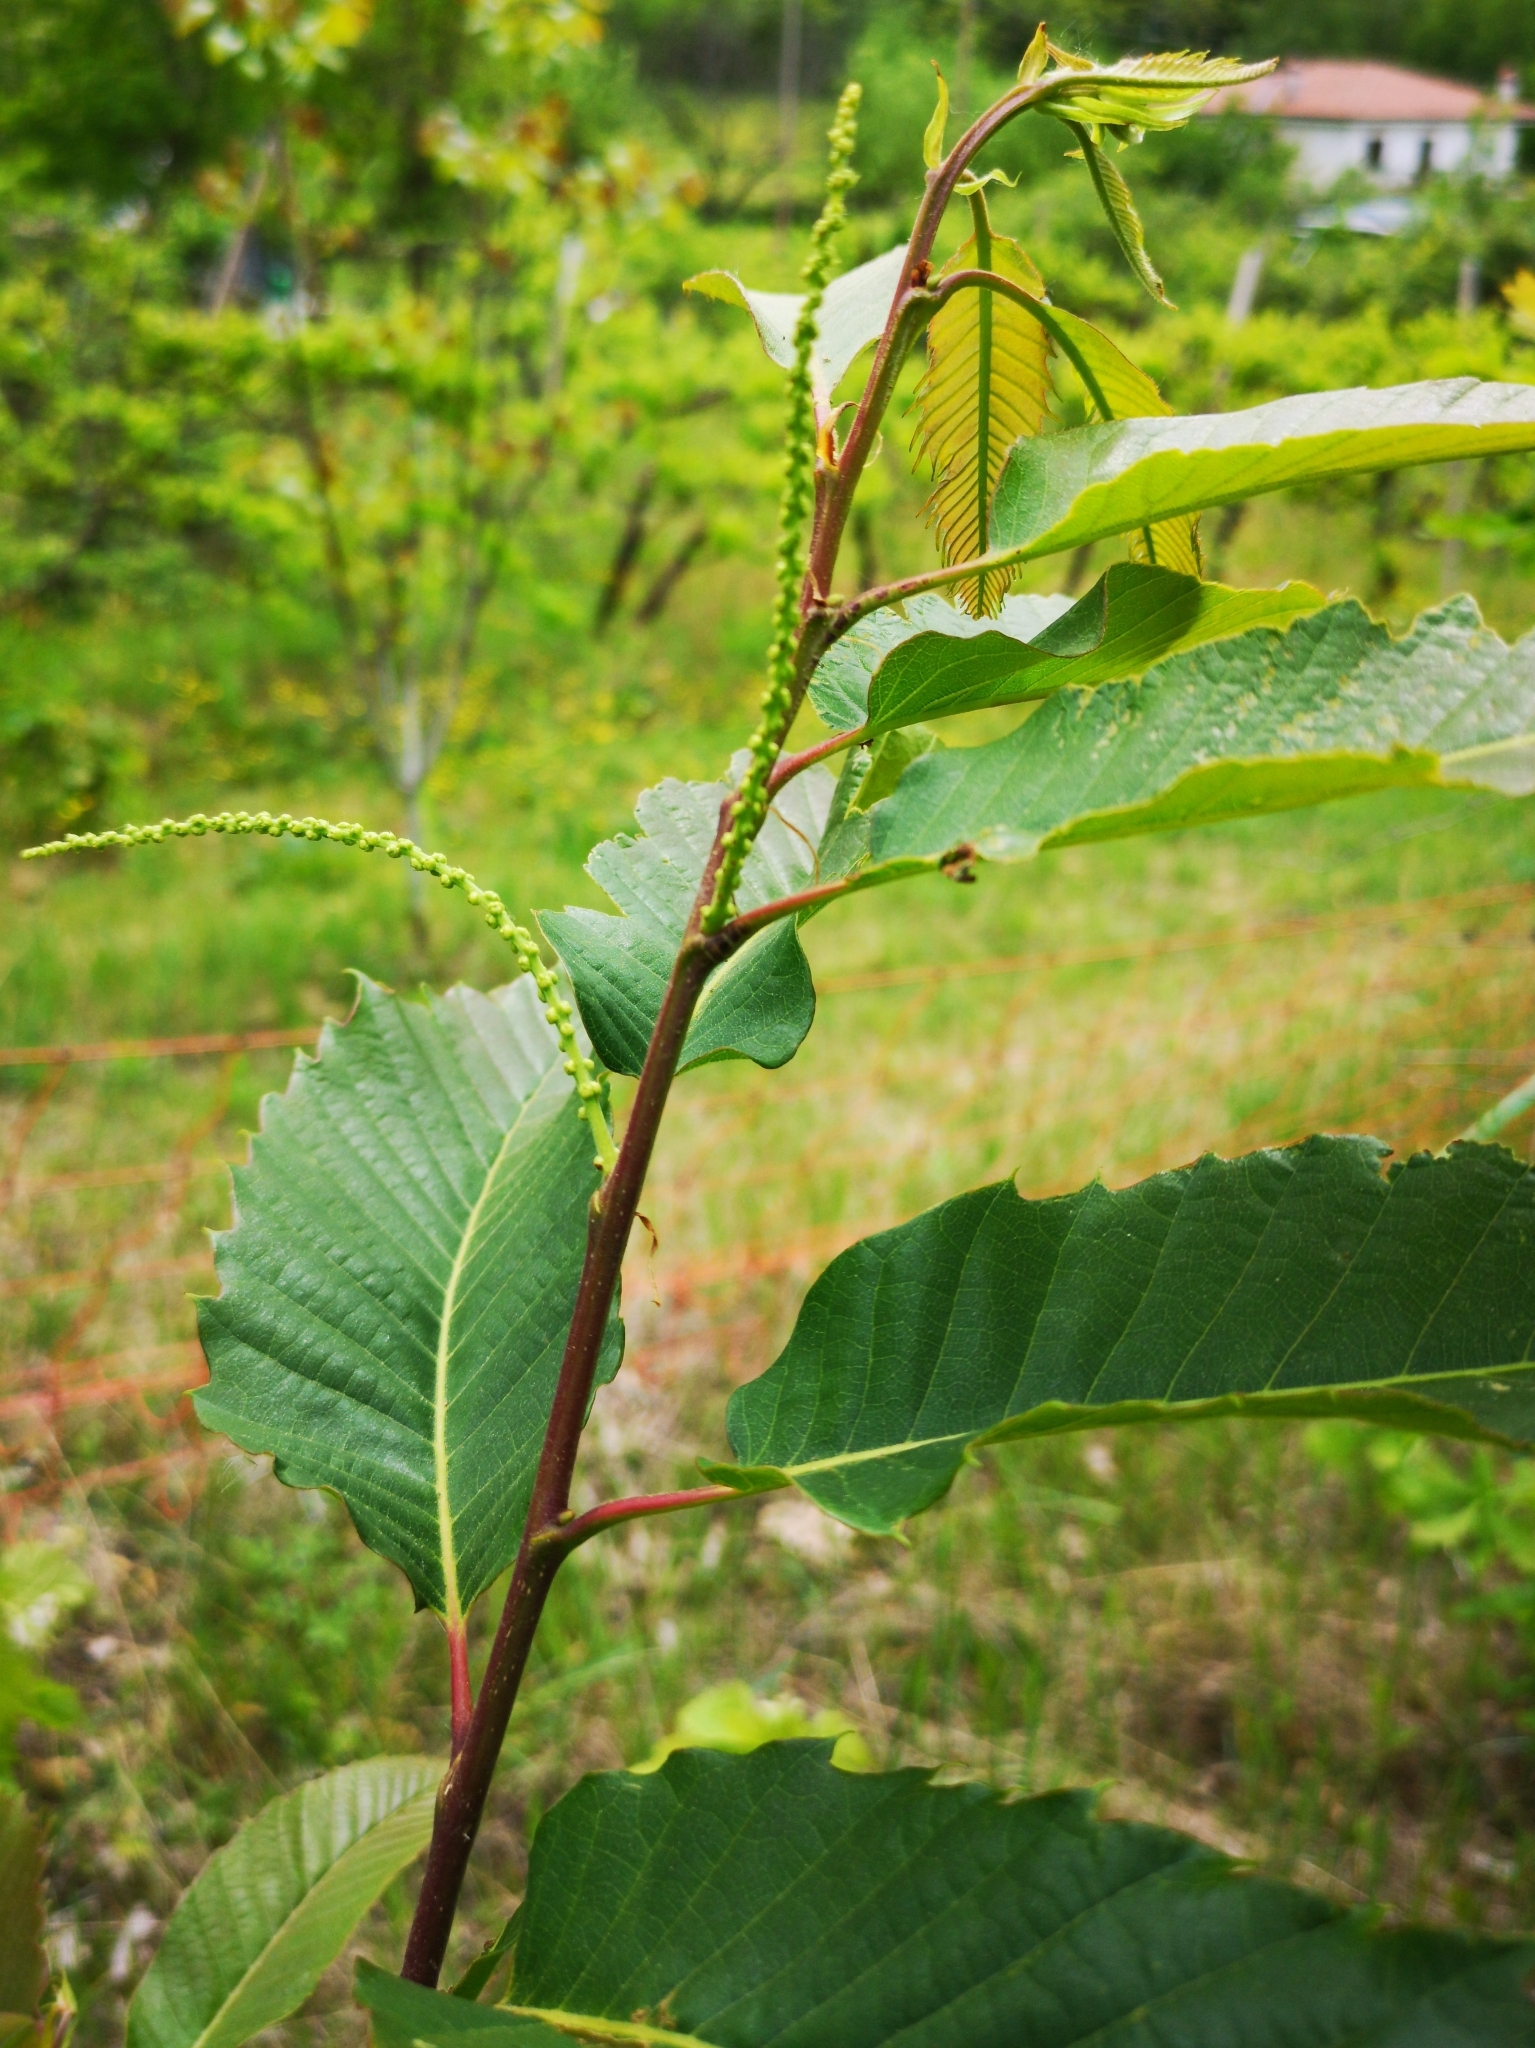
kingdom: Plantae
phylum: Tracheophyta
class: Magnoliopsida
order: Fagales
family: Fagaceae
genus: Castanea
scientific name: Castanea sativa
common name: Sweet chestnut
